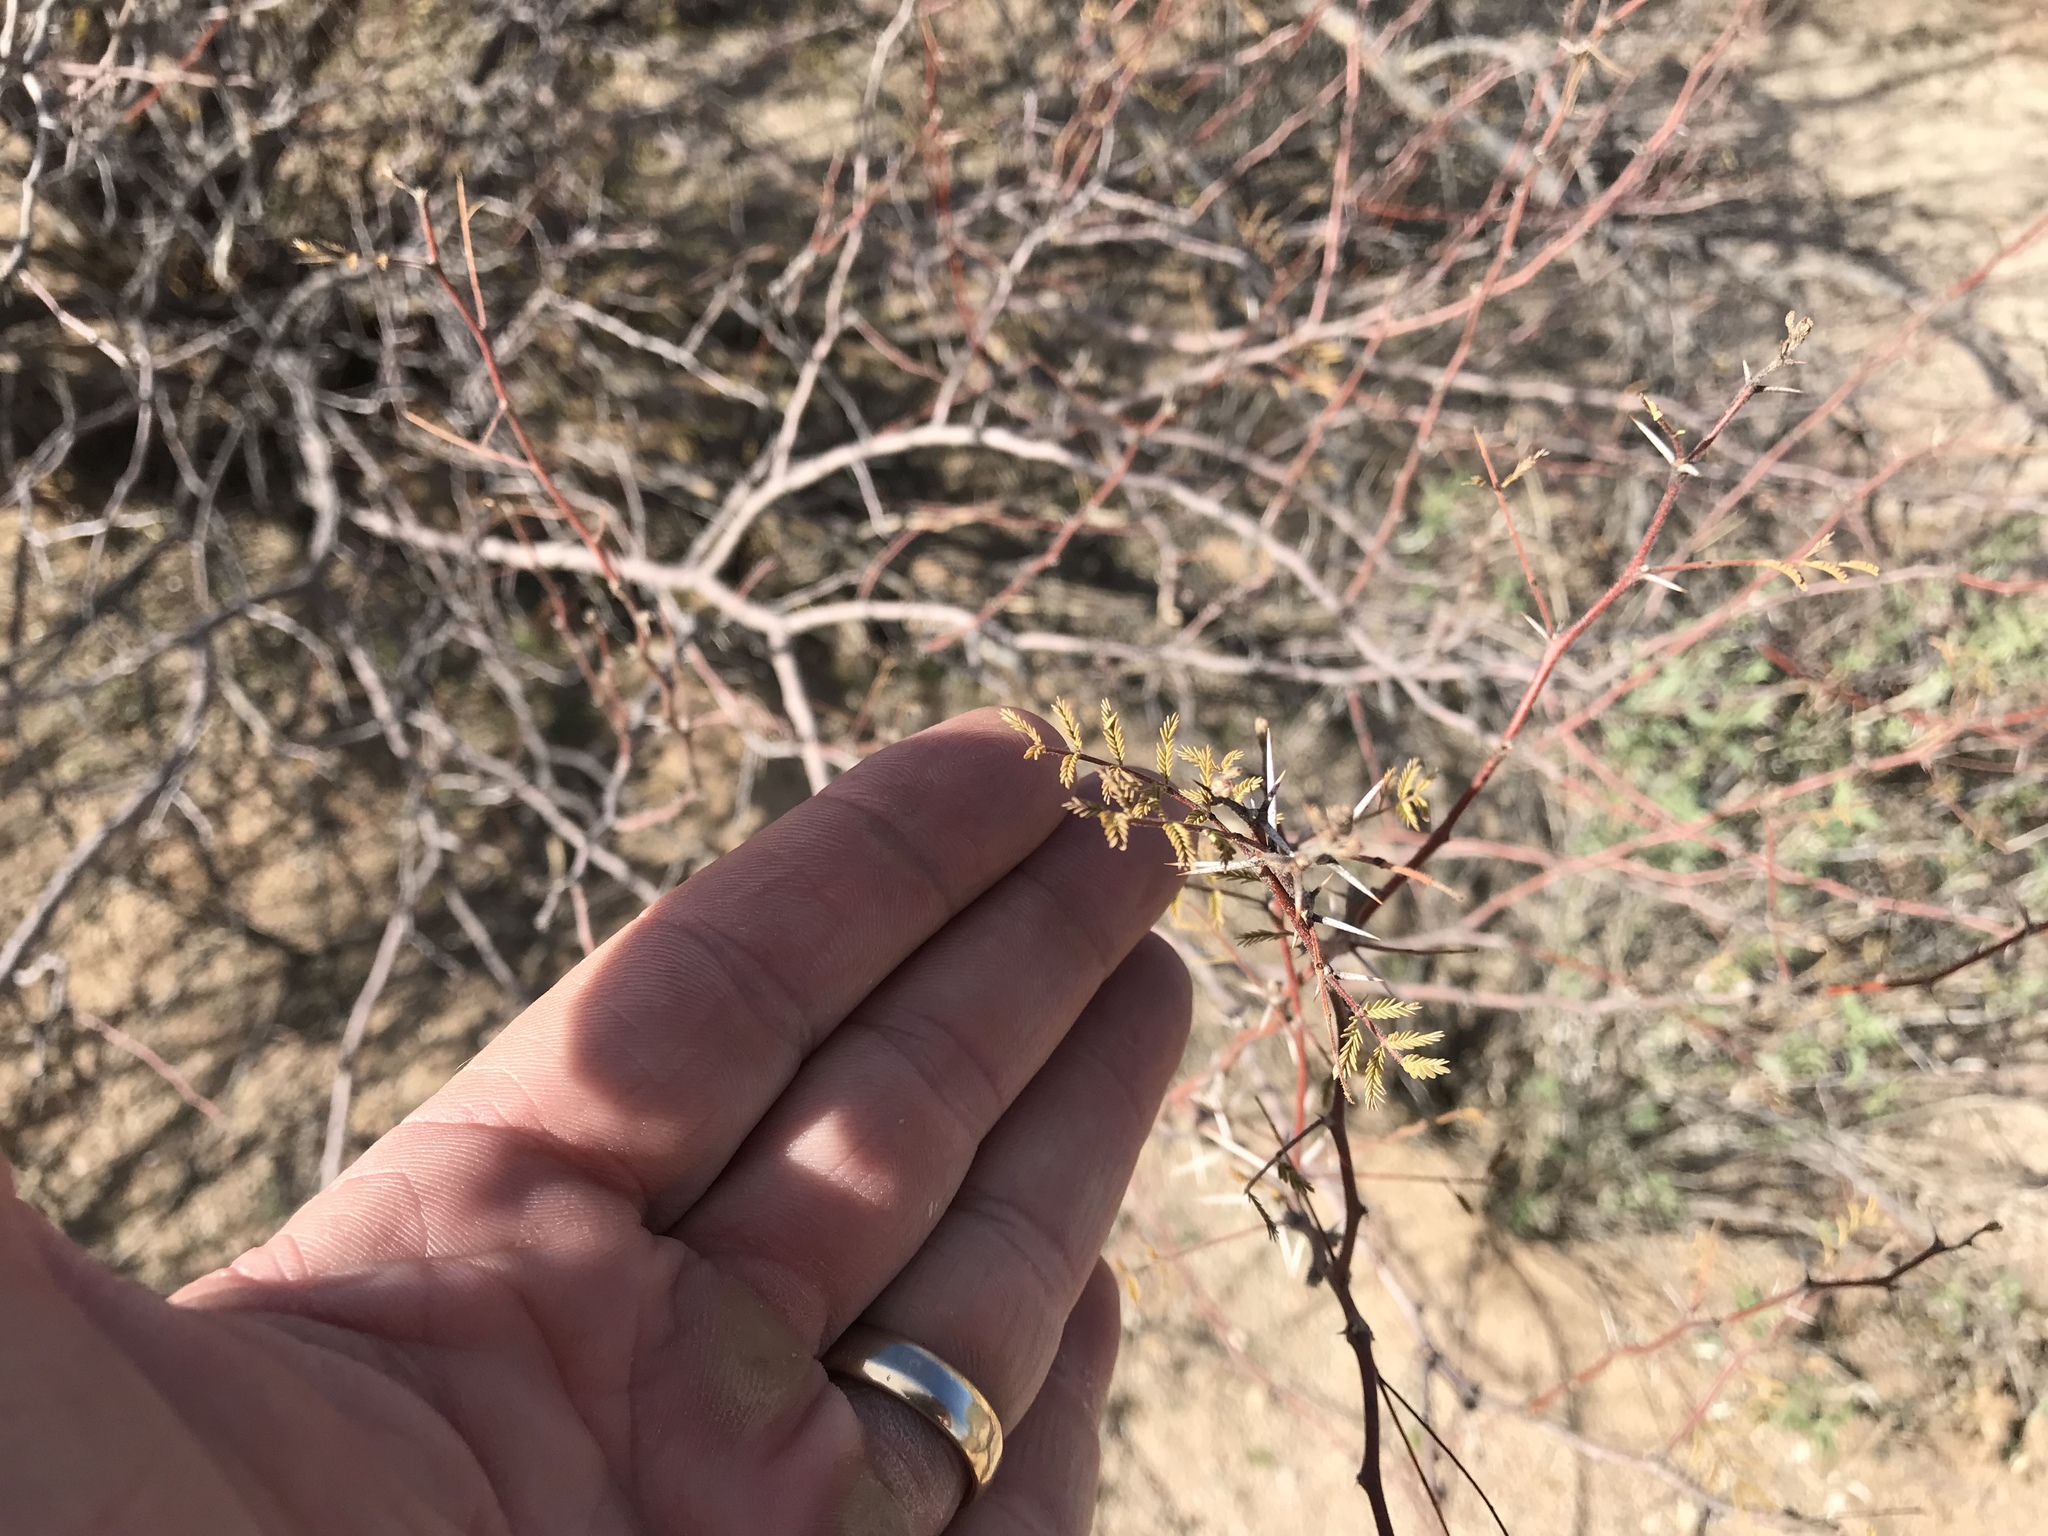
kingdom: Plantae
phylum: Tracheophyta
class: Magnoliopsida
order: Fabales
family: Fabaceae
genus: Vachellia
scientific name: Vachellia constricta
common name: Mescat acacia
